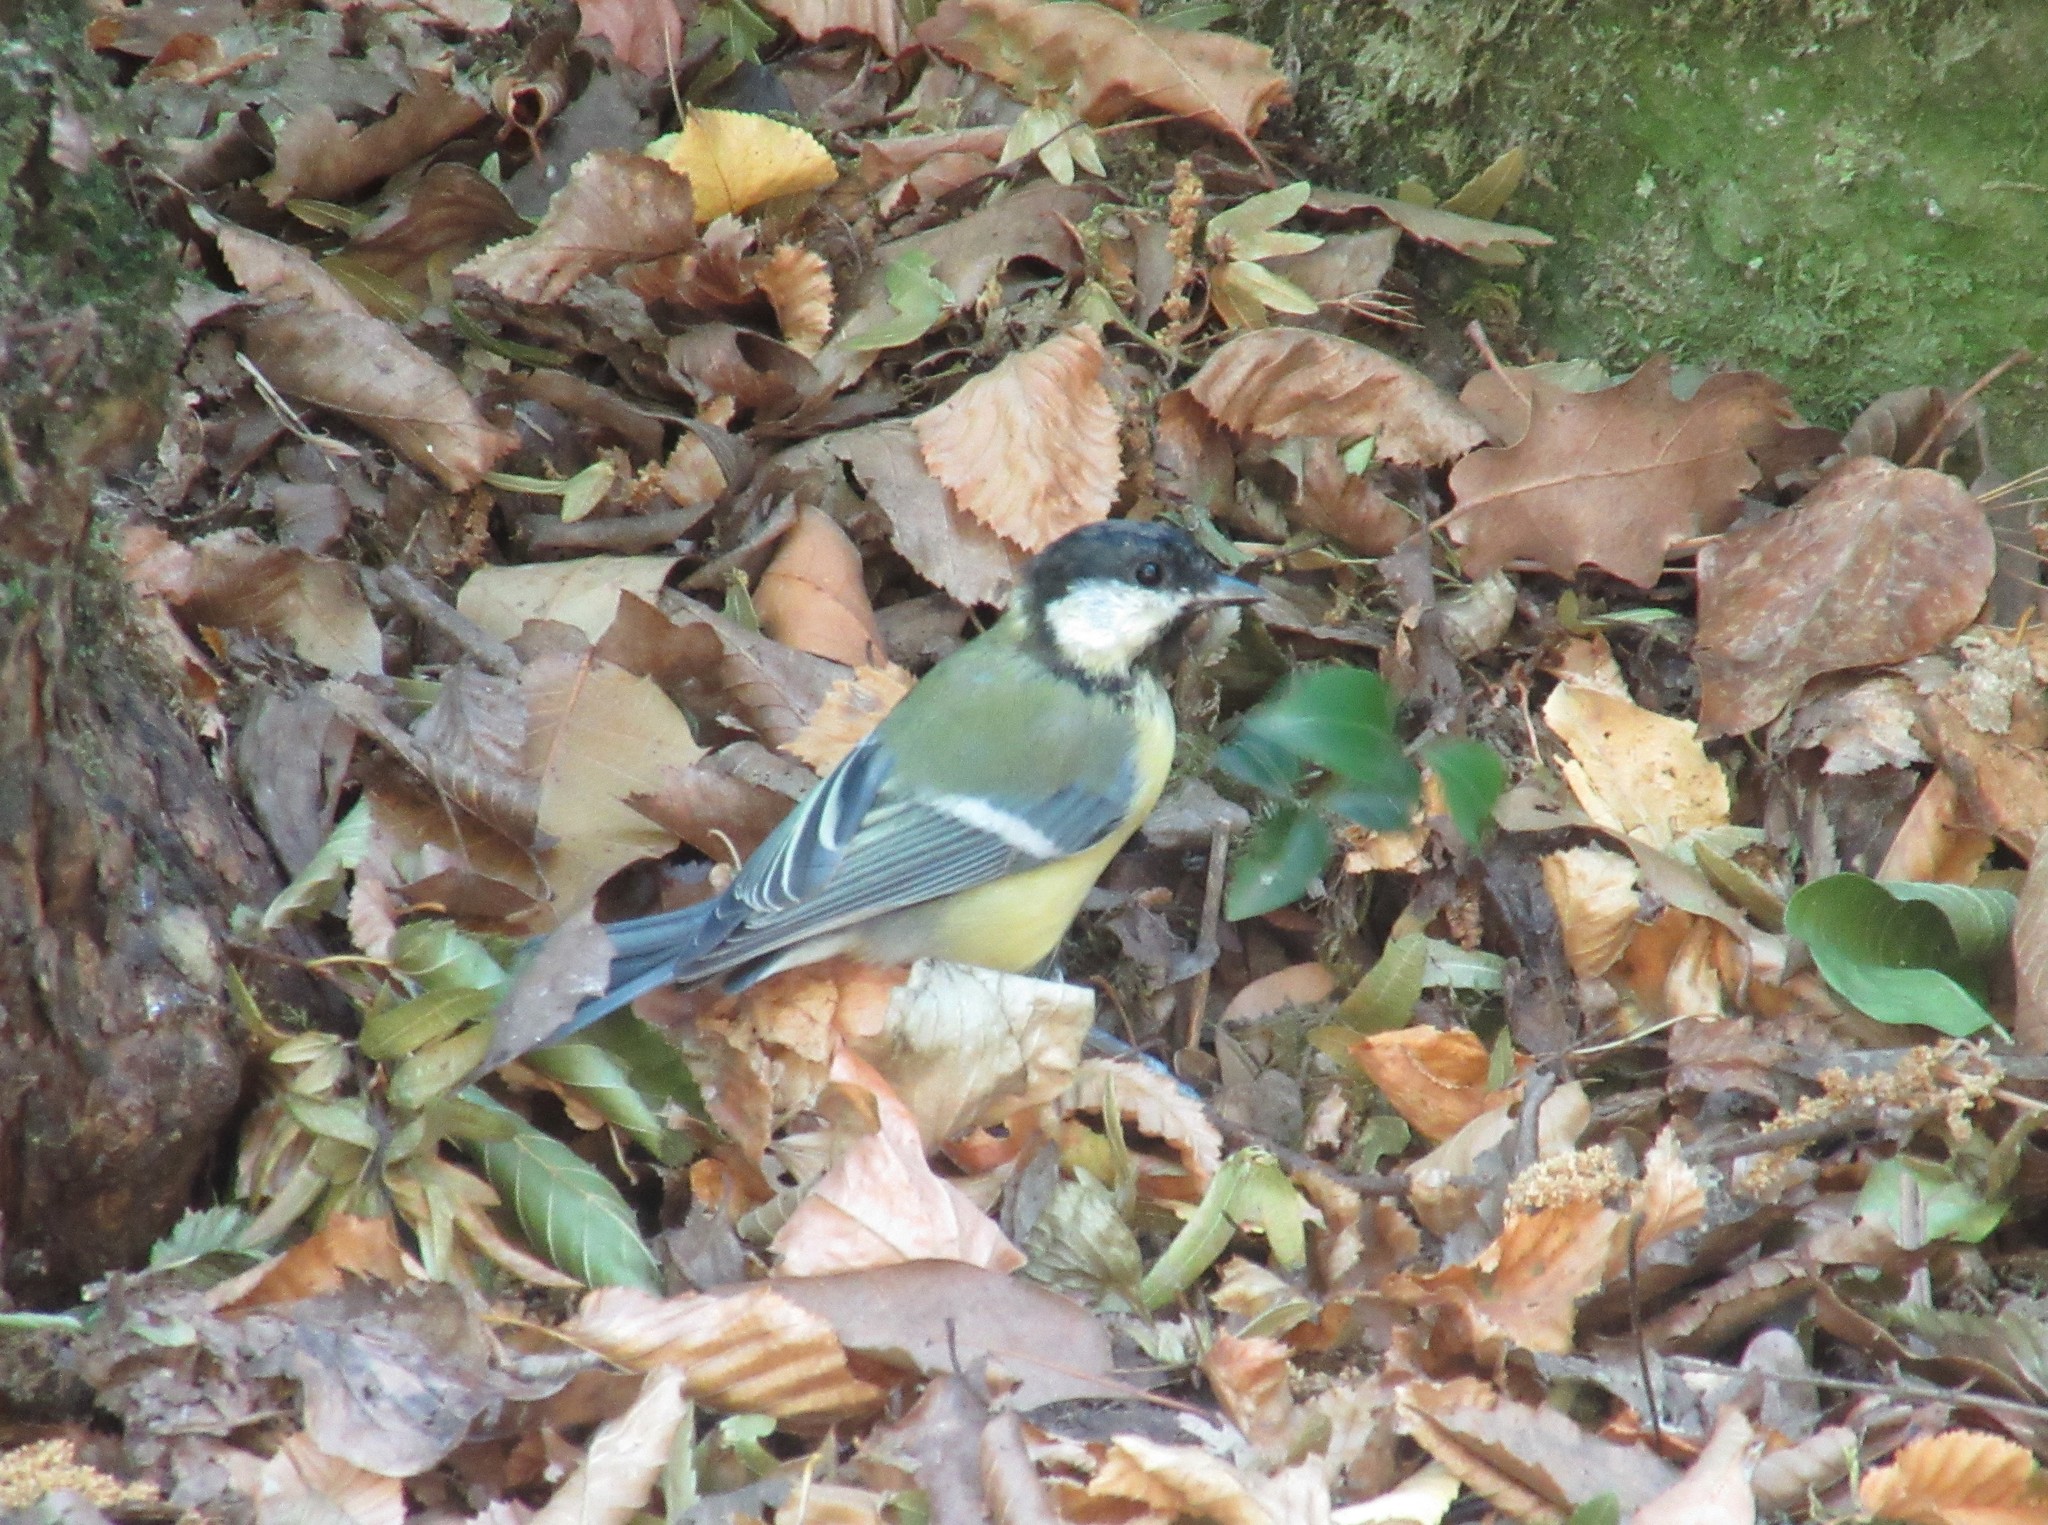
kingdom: Animalia
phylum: Chordata
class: Aves
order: Passeriformes
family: Paridae
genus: Parus
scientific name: Parus major
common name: Great tit
